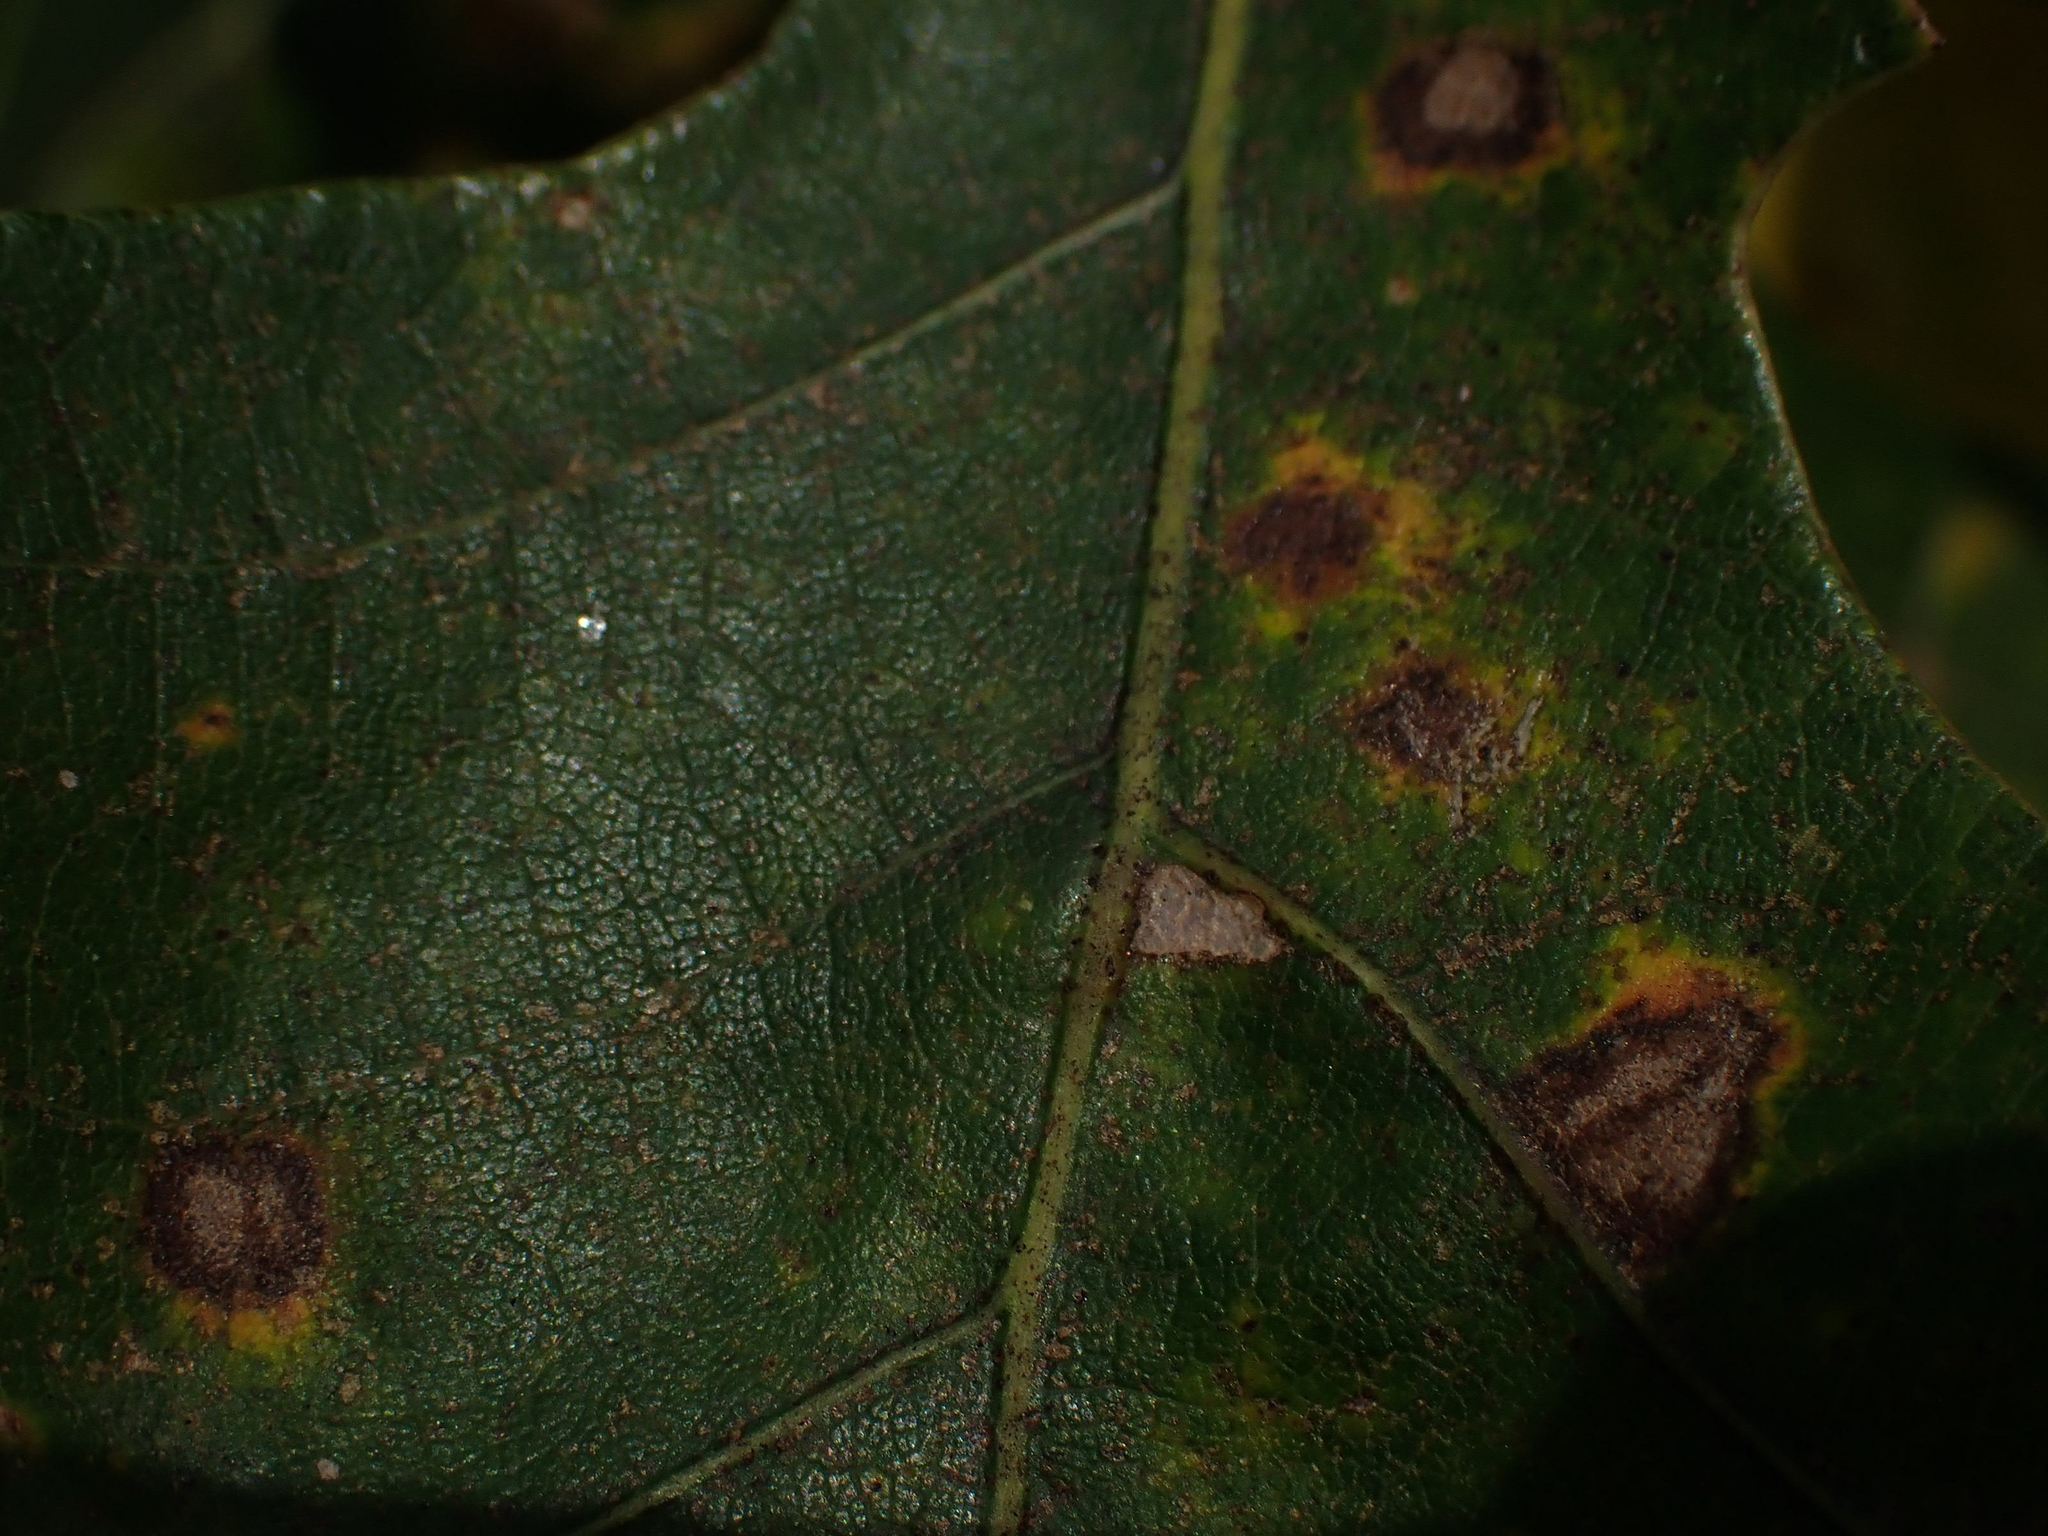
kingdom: Animalia
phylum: Arthropoda
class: Insecta
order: Hymenoptera
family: Cynipidae
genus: Andricus
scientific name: Andricus Druon ignotum
